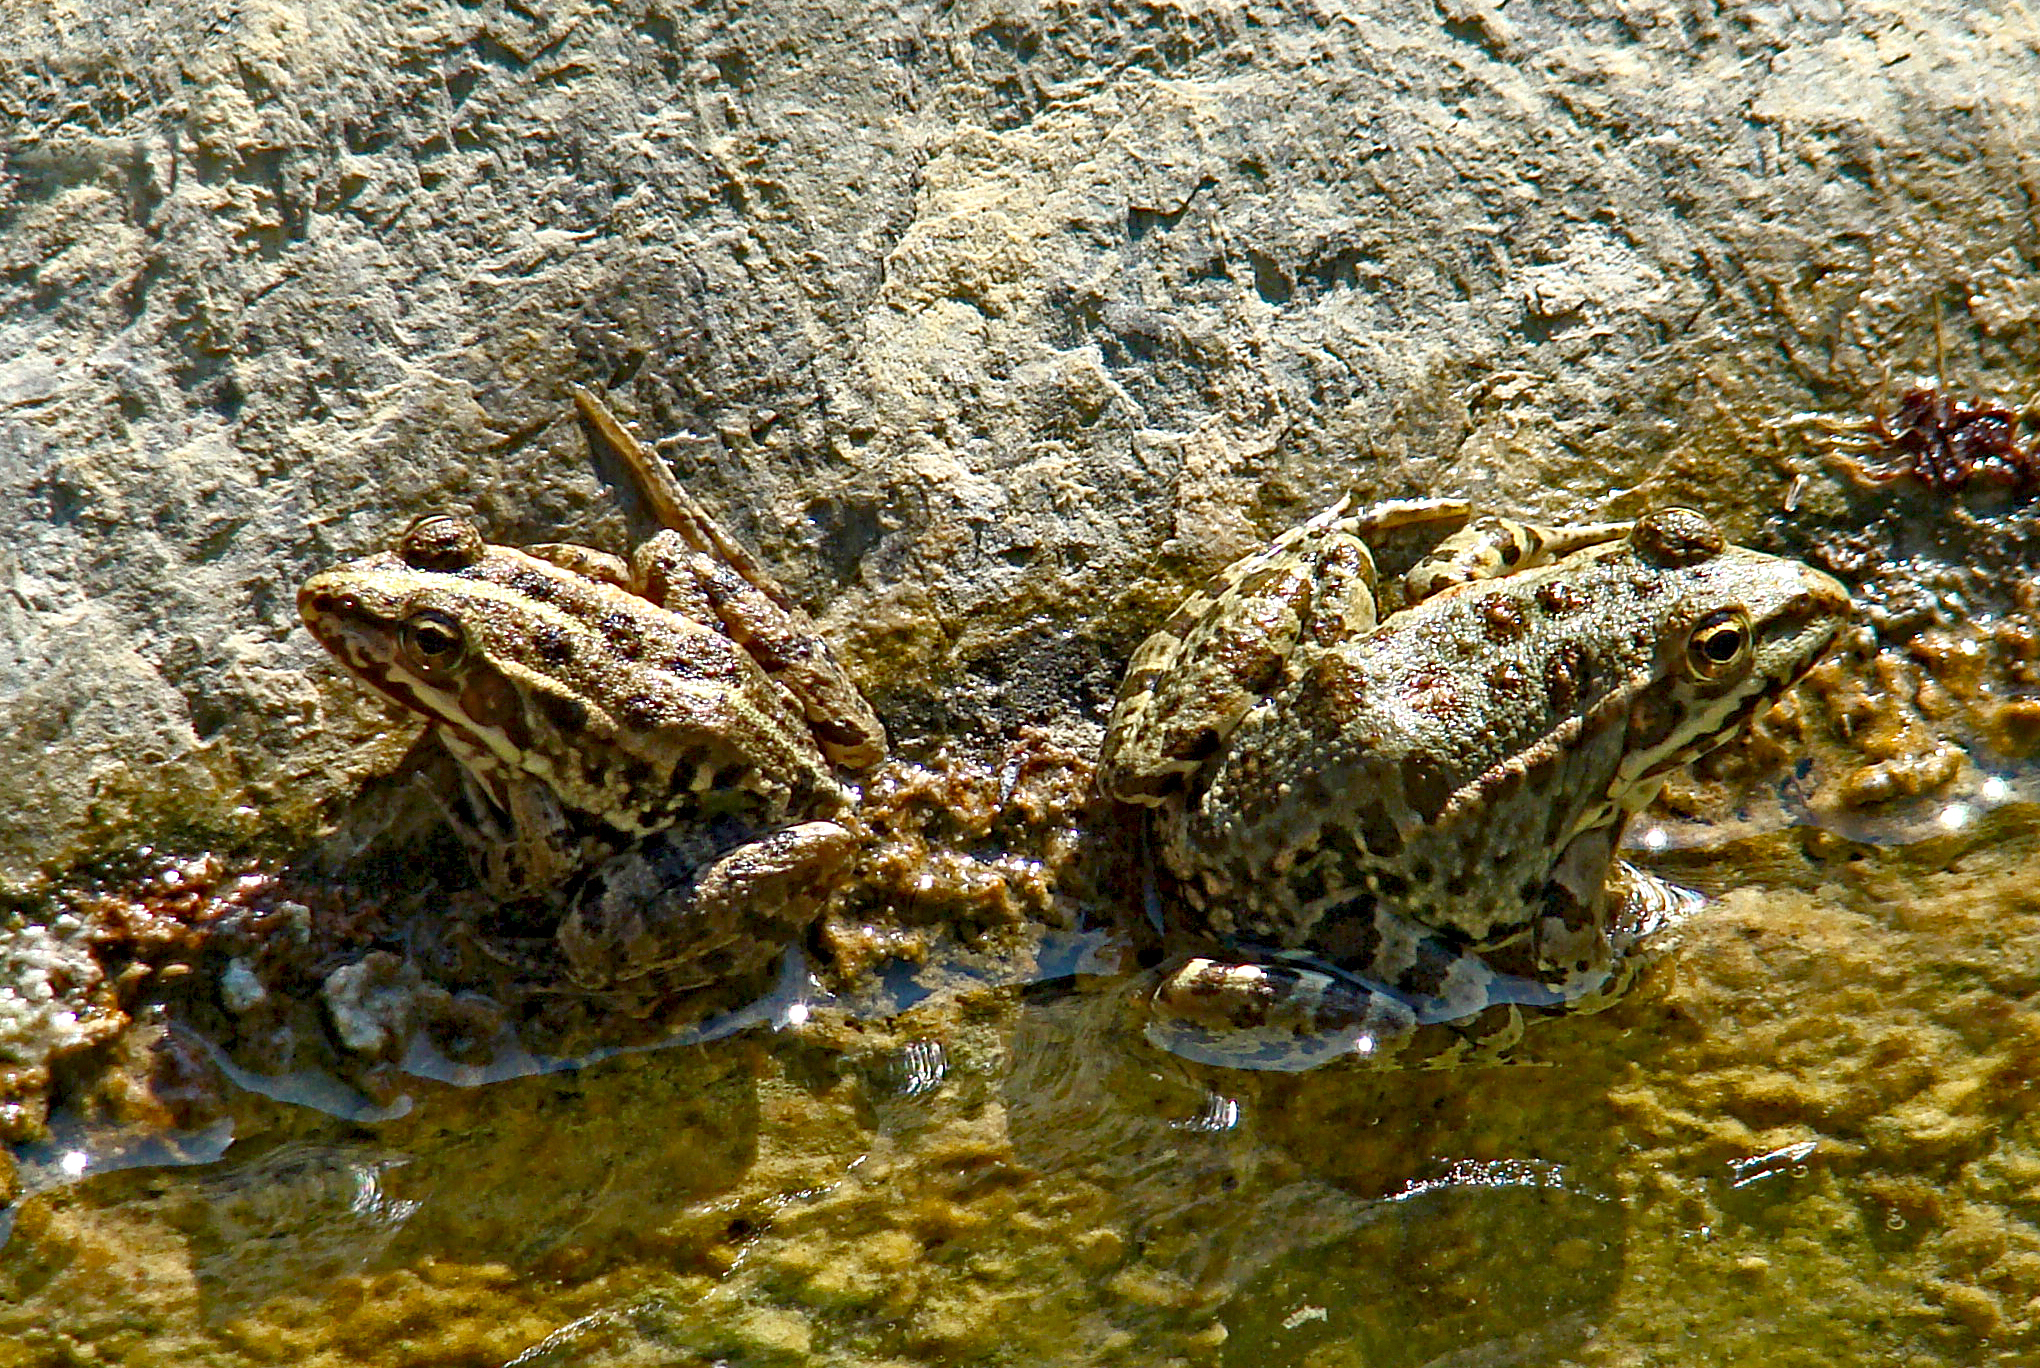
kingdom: Animalia
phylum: Chordata
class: Amphibia
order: Anura
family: Ranidae
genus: Pelophylax
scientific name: Pelophylax ridibundus
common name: Marsh frog
